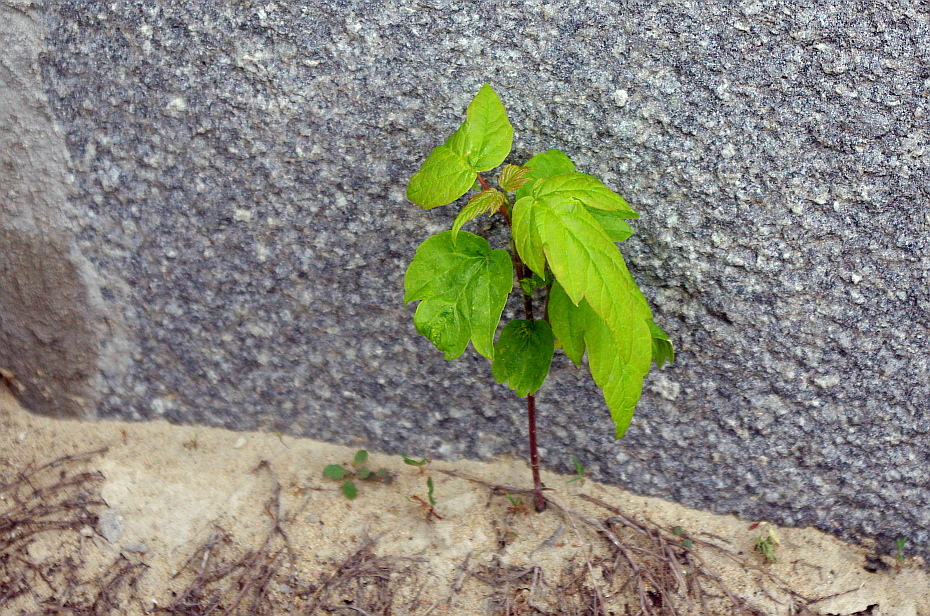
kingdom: Plantae
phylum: Tracheophyta
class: Magnoliopsida
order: Sapindales
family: Sapindaceae
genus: Acer
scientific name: Acer negundo
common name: Ashleaf maple
